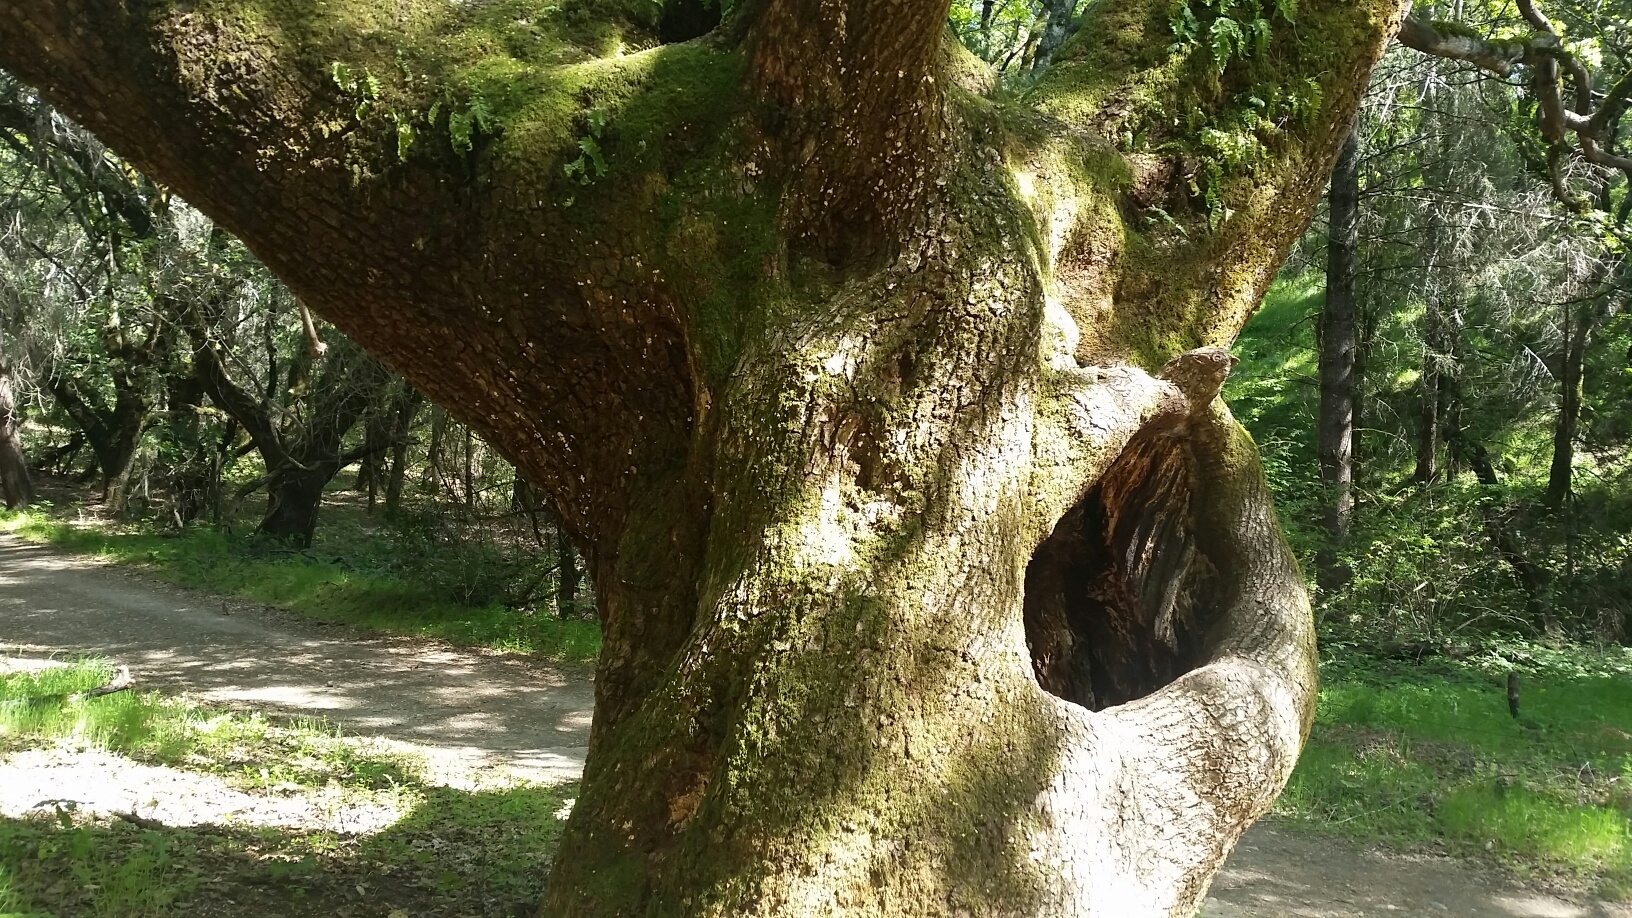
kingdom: Plantae
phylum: Tracheophyta
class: Magnoliopsida
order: Sapindales
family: Sapindaceae
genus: Acer
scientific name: Acer macrophyllum
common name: Oregon maple
